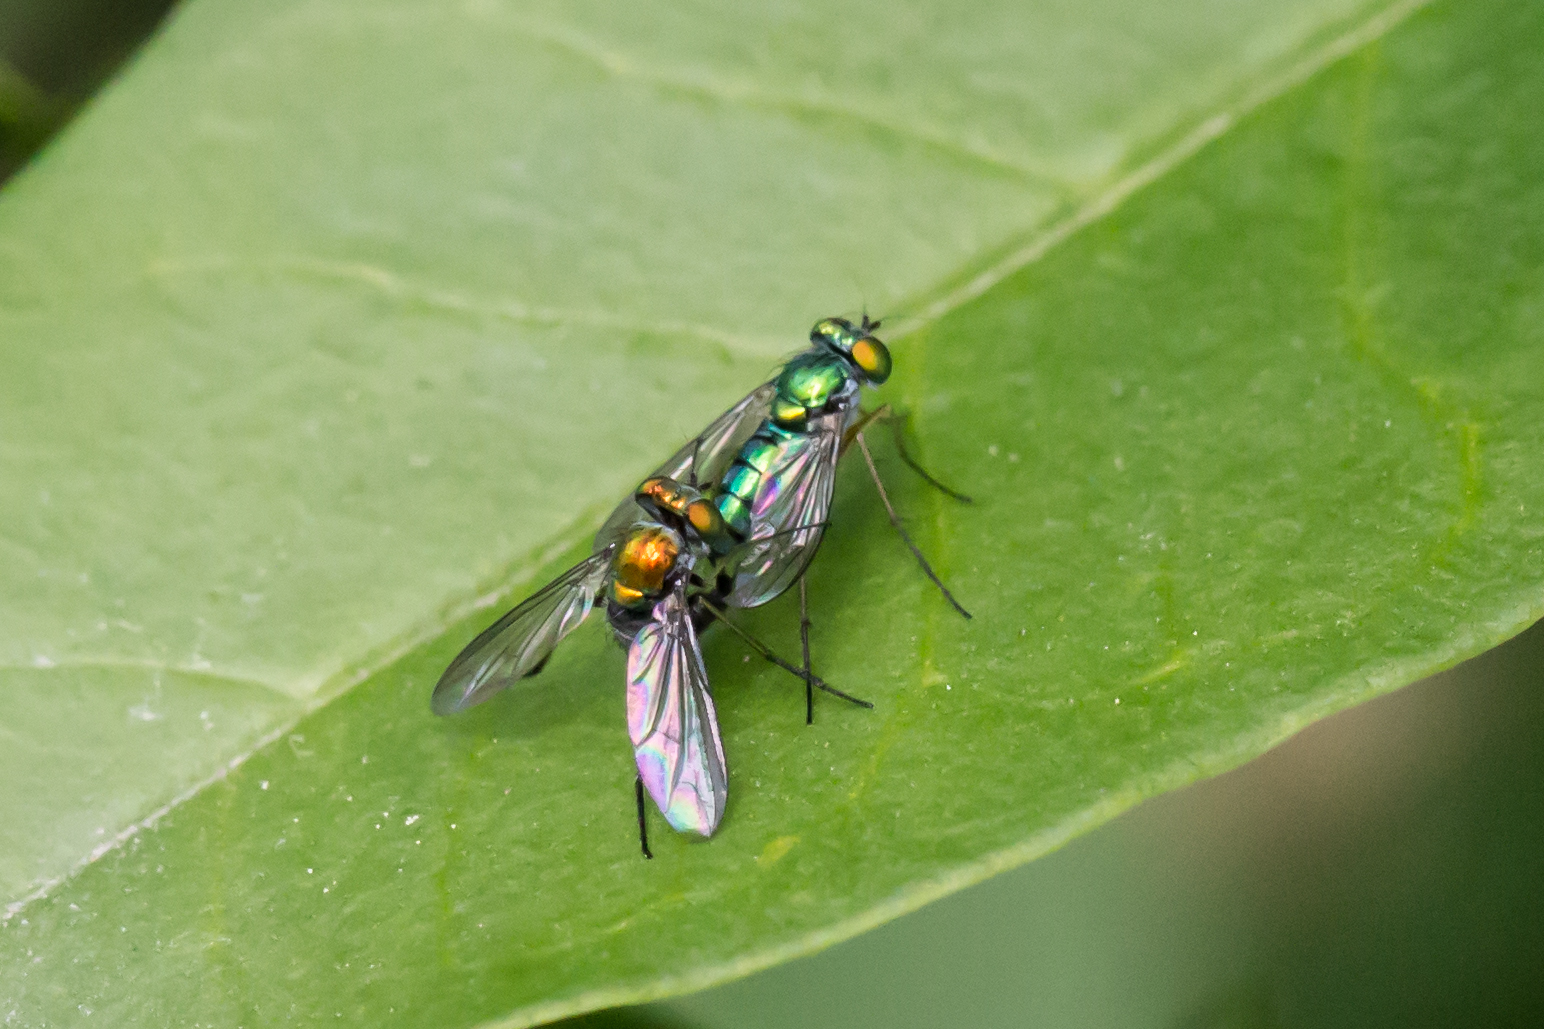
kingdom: Animalia
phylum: Arthropoda
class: Insecta
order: Diptera
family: Dolichopodidae
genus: Condylostylus
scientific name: Condylostylus caudatus
